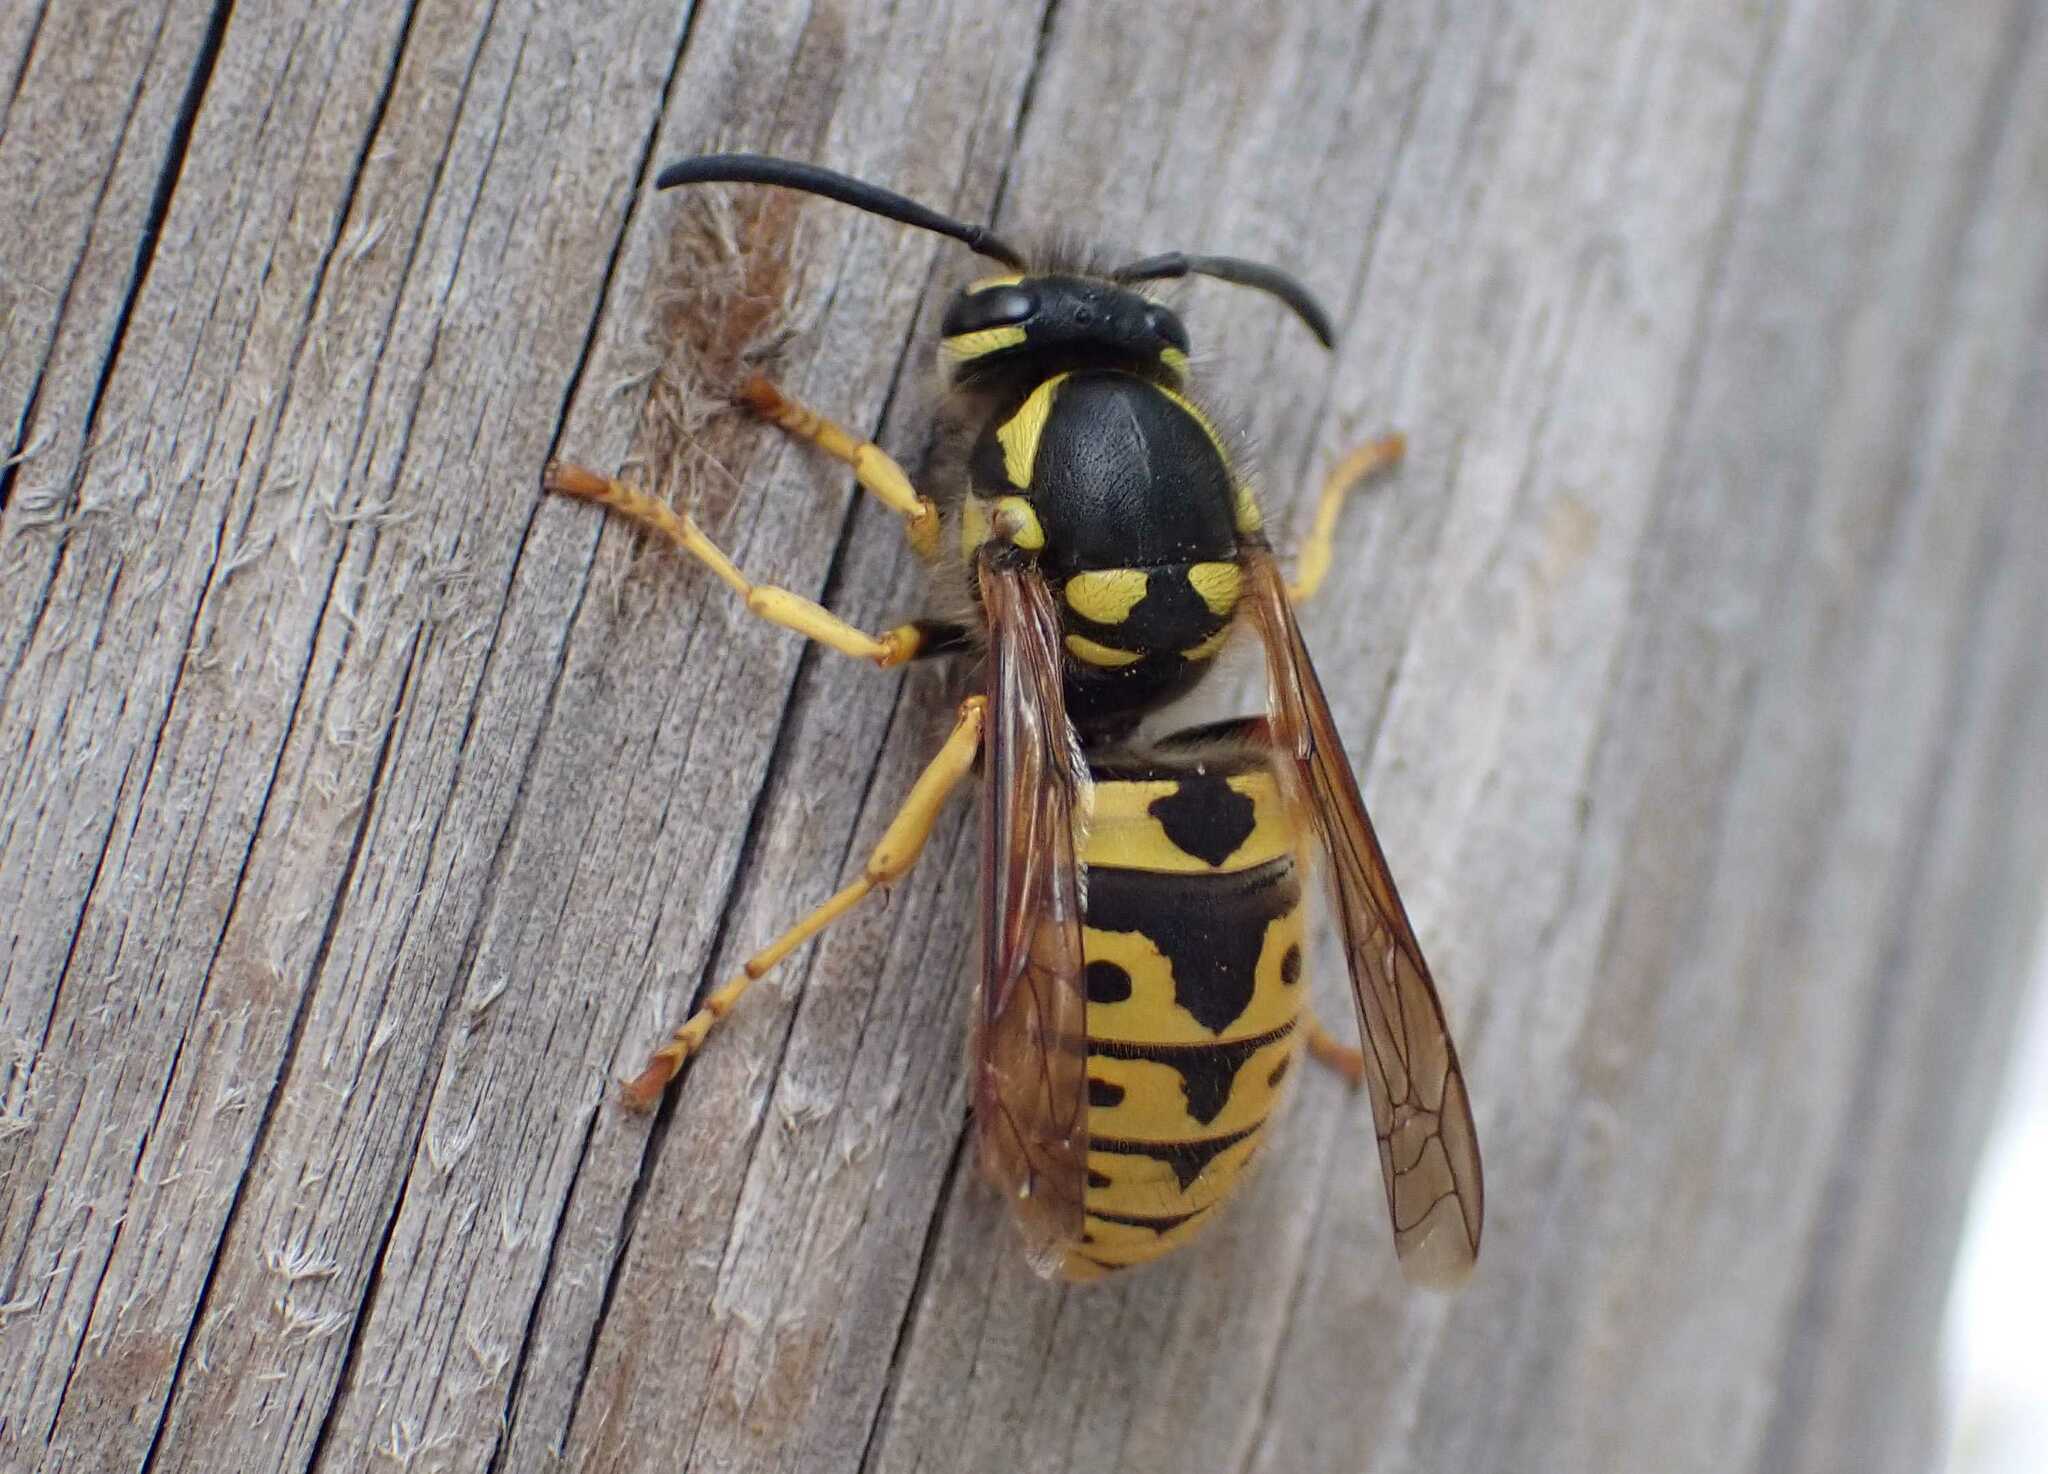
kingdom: Animalia
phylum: Arthropoda
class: Insecta
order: Hymenoptera
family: Vespidae
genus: Vespula
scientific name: Vespula germanica
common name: German wasp
